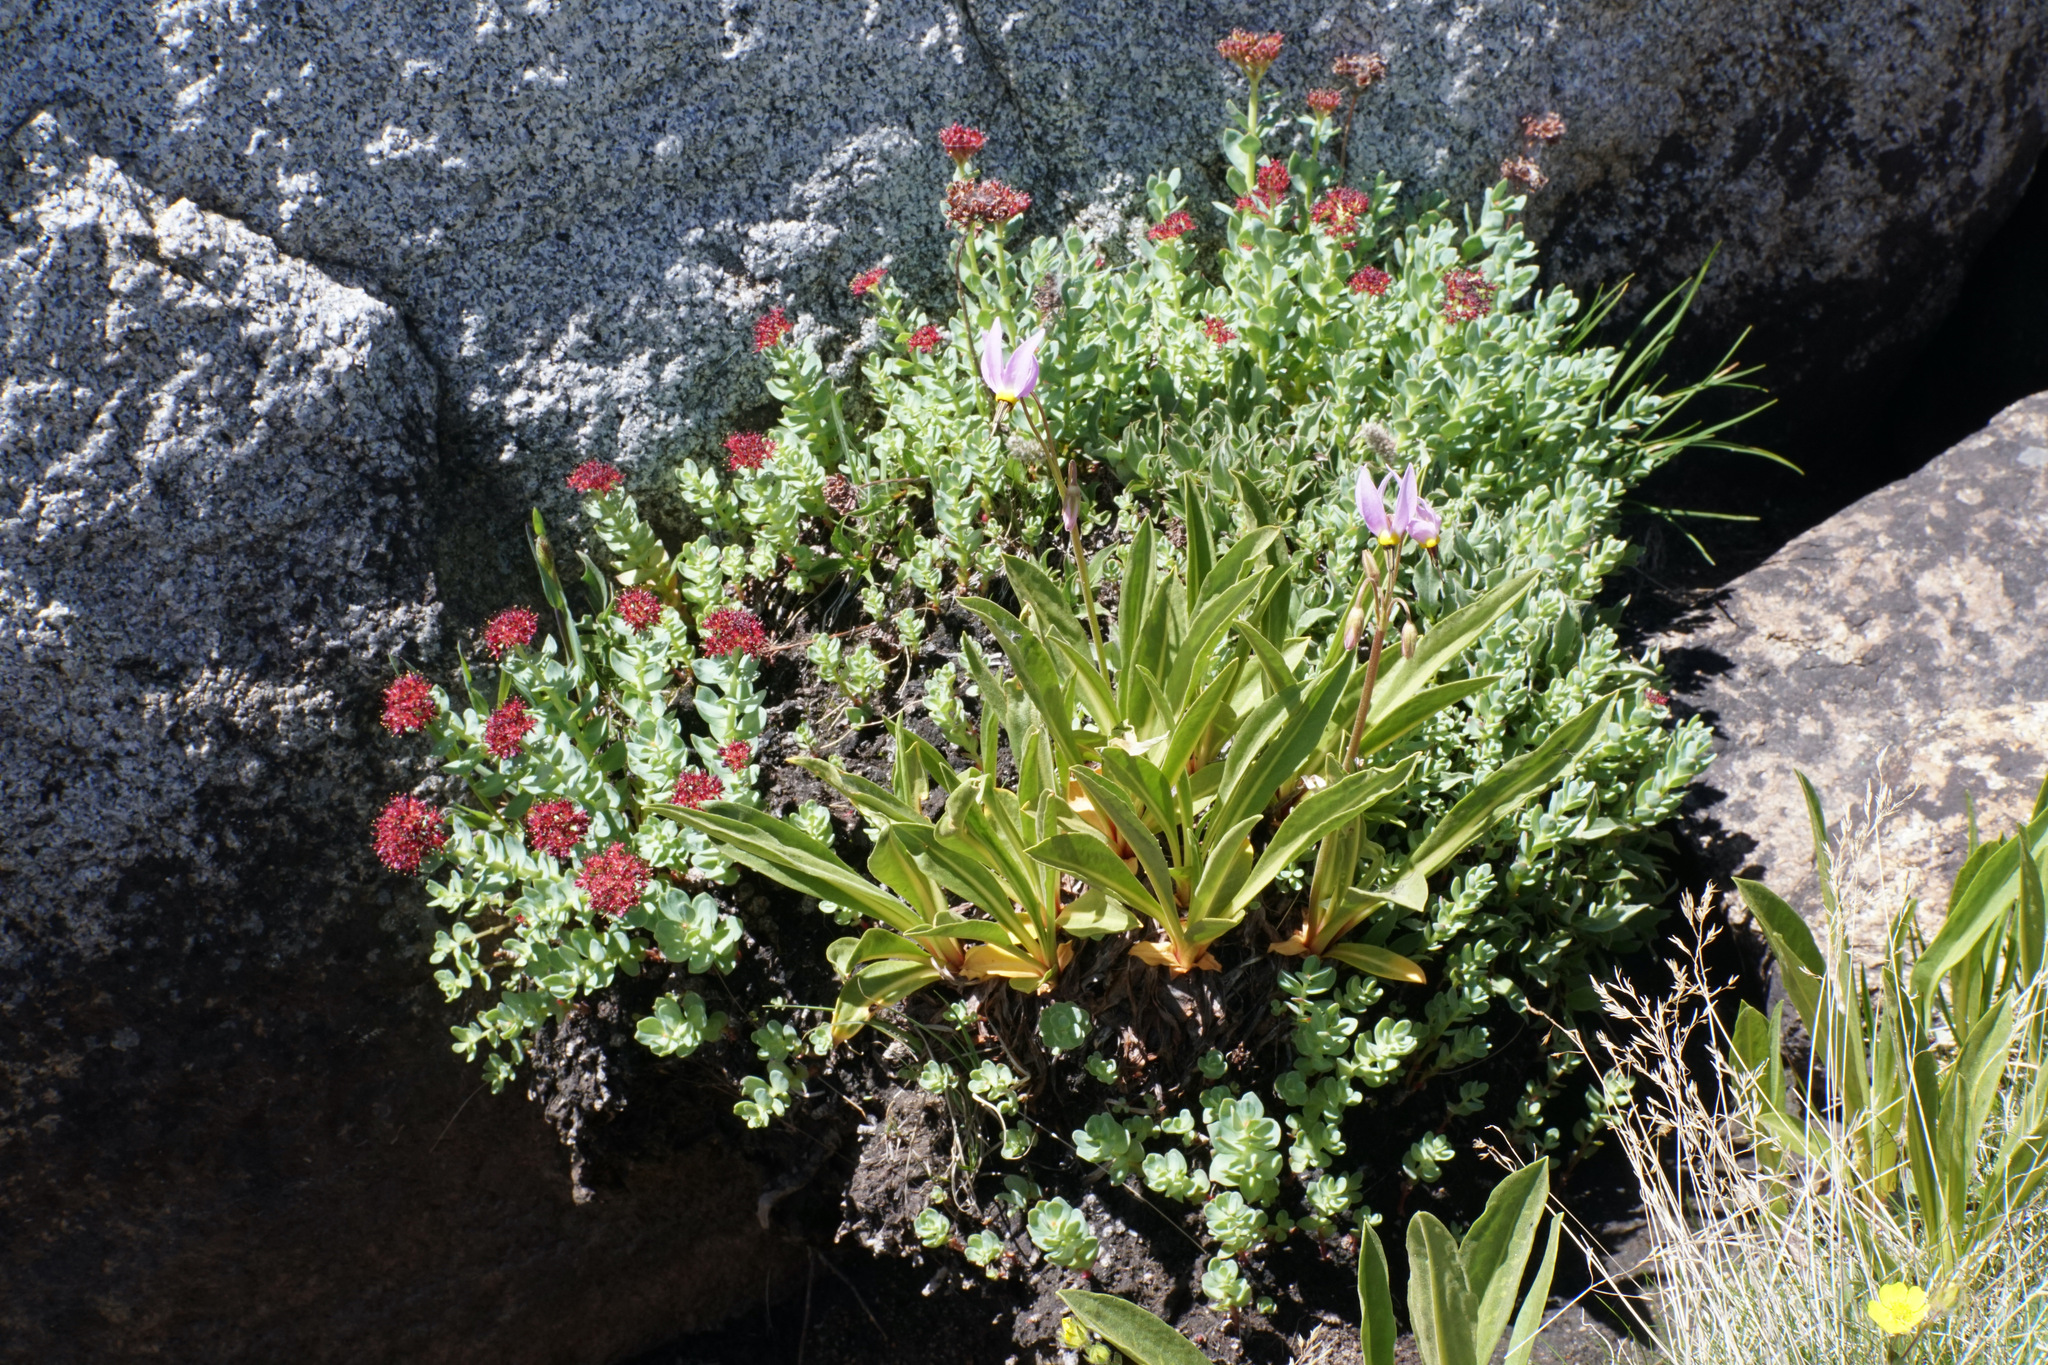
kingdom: Plantae
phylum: Tracheophyta
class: Magnoliopsida
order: Saxifragales
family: Crassulaceae
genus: Rhodiola
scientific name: Rhodiola integrifolia
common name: Western roseroot
